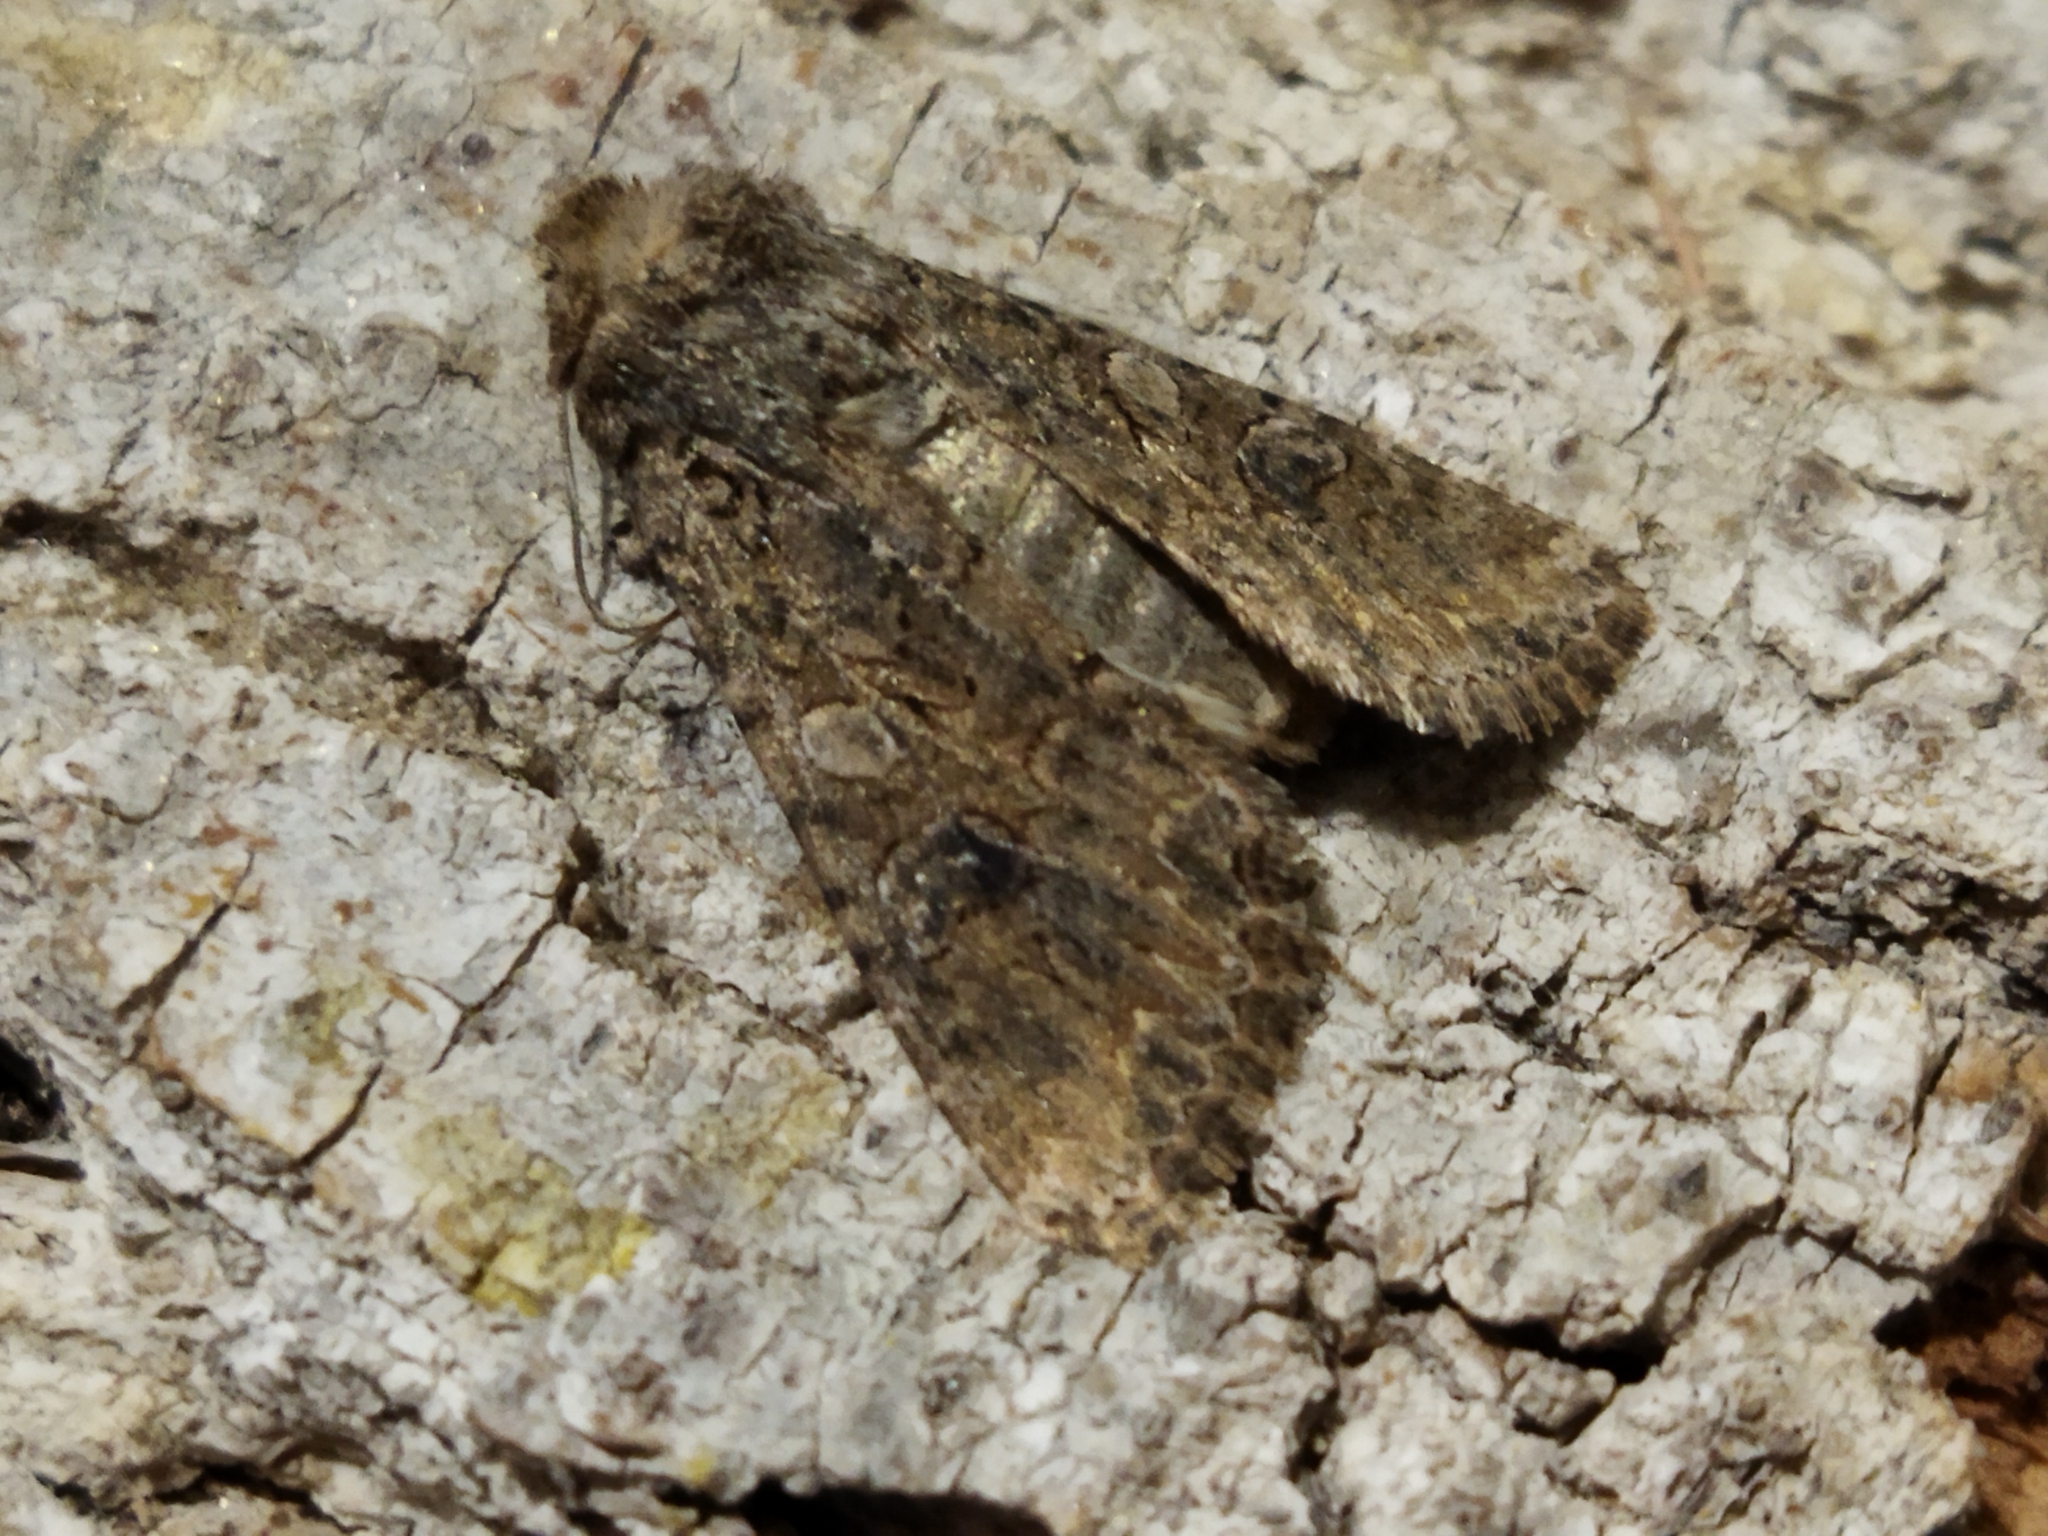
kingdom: Animalia
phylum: Arthropoda
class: Insecta
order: Lepidoptera
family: Noctuidae
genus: Anarta
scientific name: Anarta trifolii
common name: Clover cutworm moth
